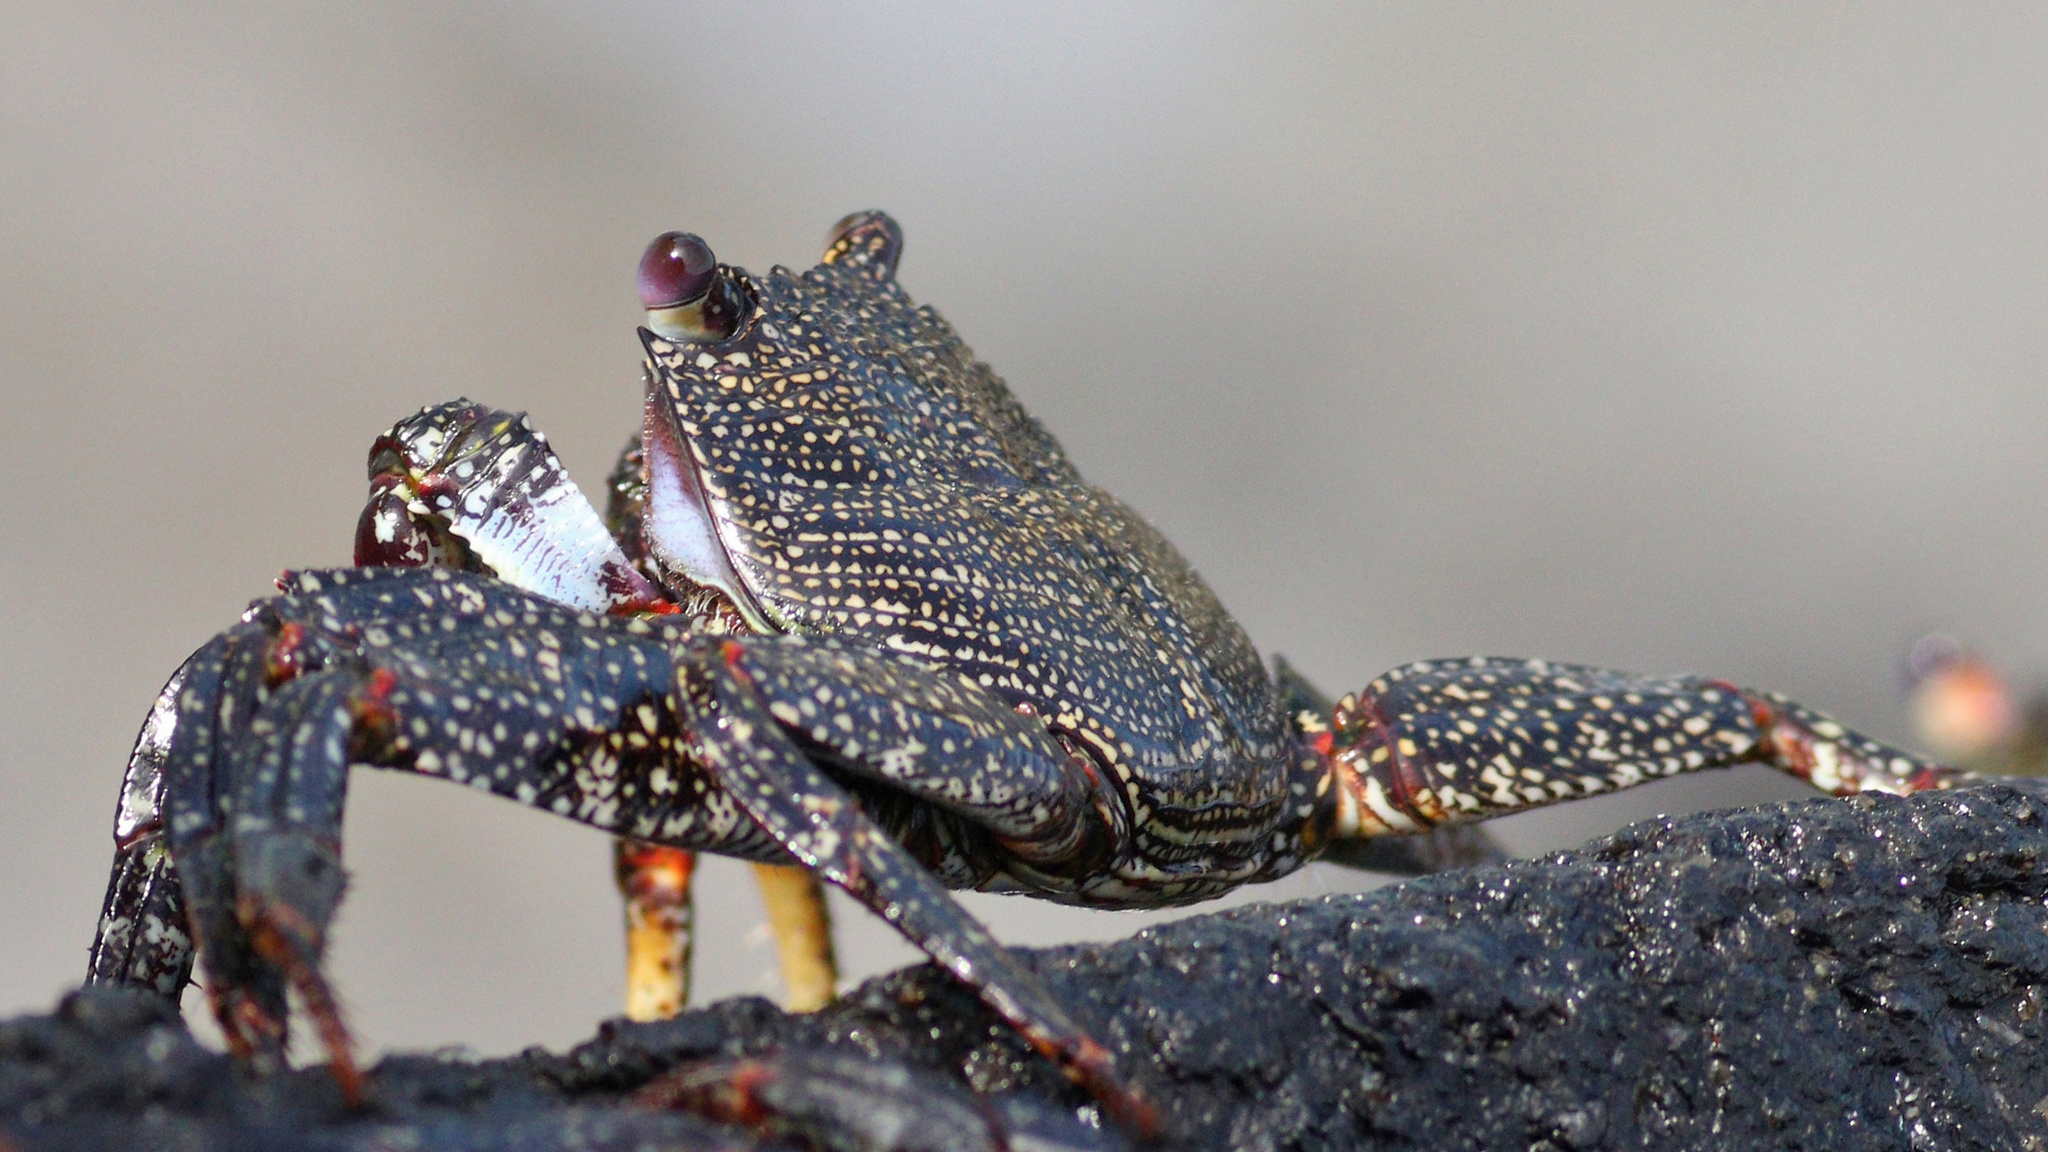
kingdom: Animalia
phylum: Arthropoda
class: Malacostraca
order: Decapoda
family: Grapsidae
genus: Grapsus
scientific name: Grapsus adscensionis
